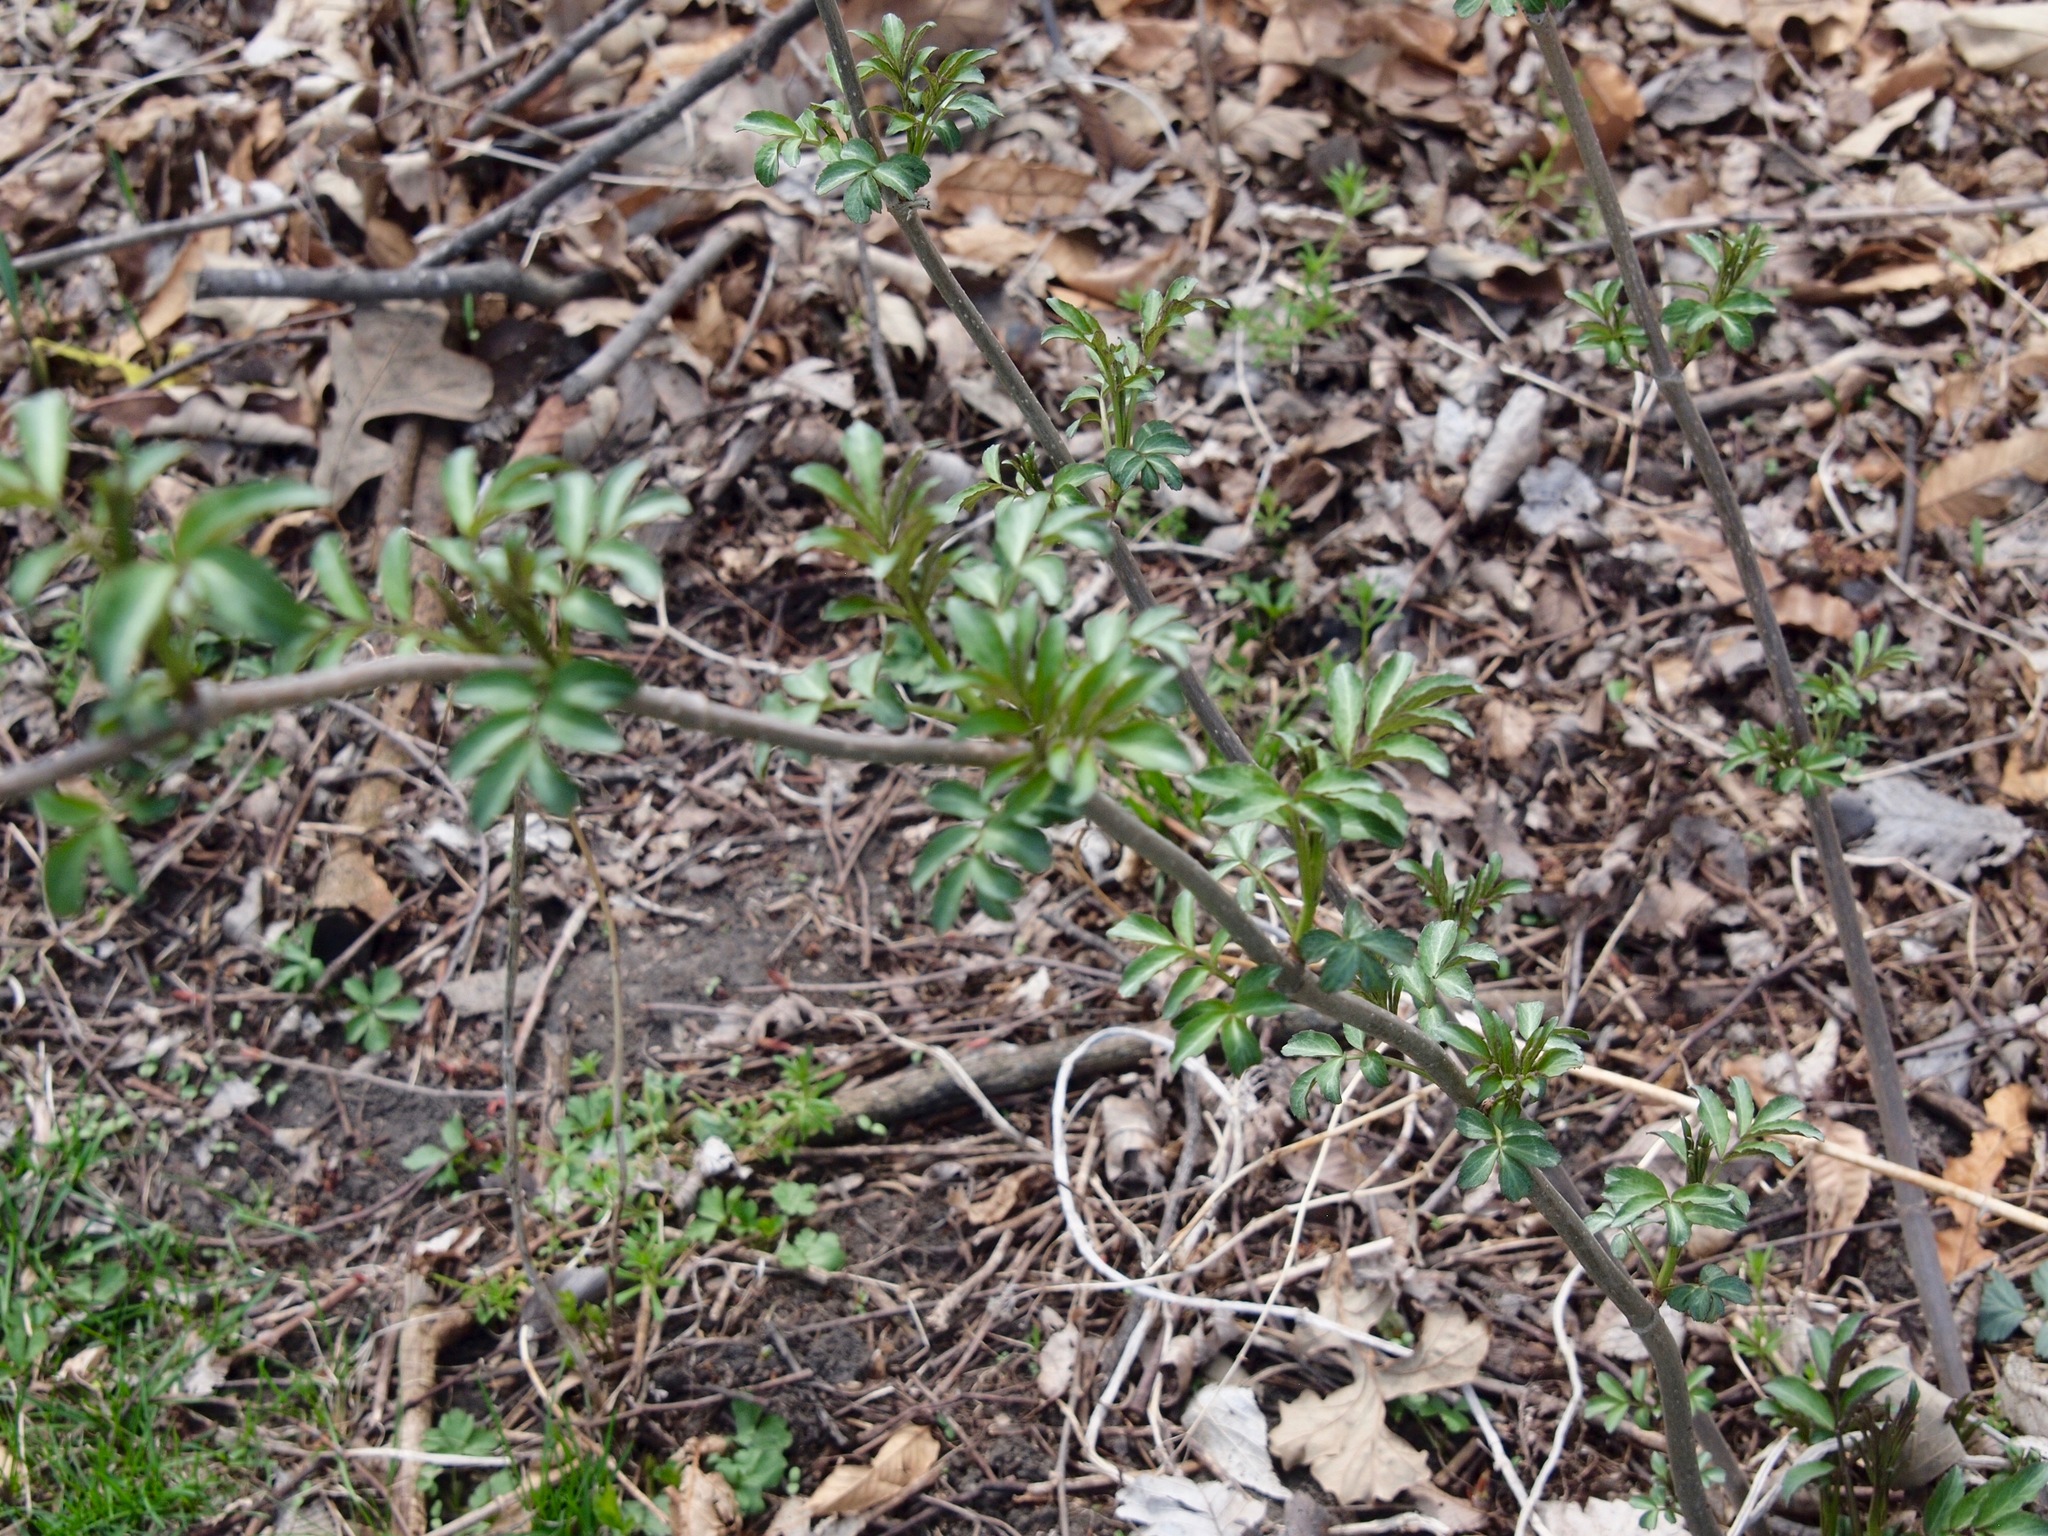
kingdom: Plantae
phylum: Tracheophyta
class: Magnoliopsida
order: Dipsacales
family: Viburnaceae
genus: Sambucus
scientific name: Sambucus canadensis
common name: American elder
